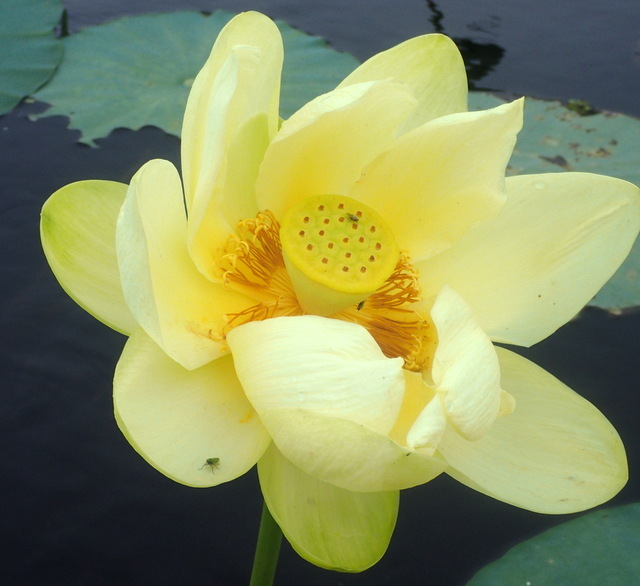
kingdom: Plantae
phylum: Tracheophyta
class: Magnoliopsida
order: Proteales
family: Nelumbonaceae
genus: Nelumbo
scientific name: Nelumbo lutea
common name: American lotus
